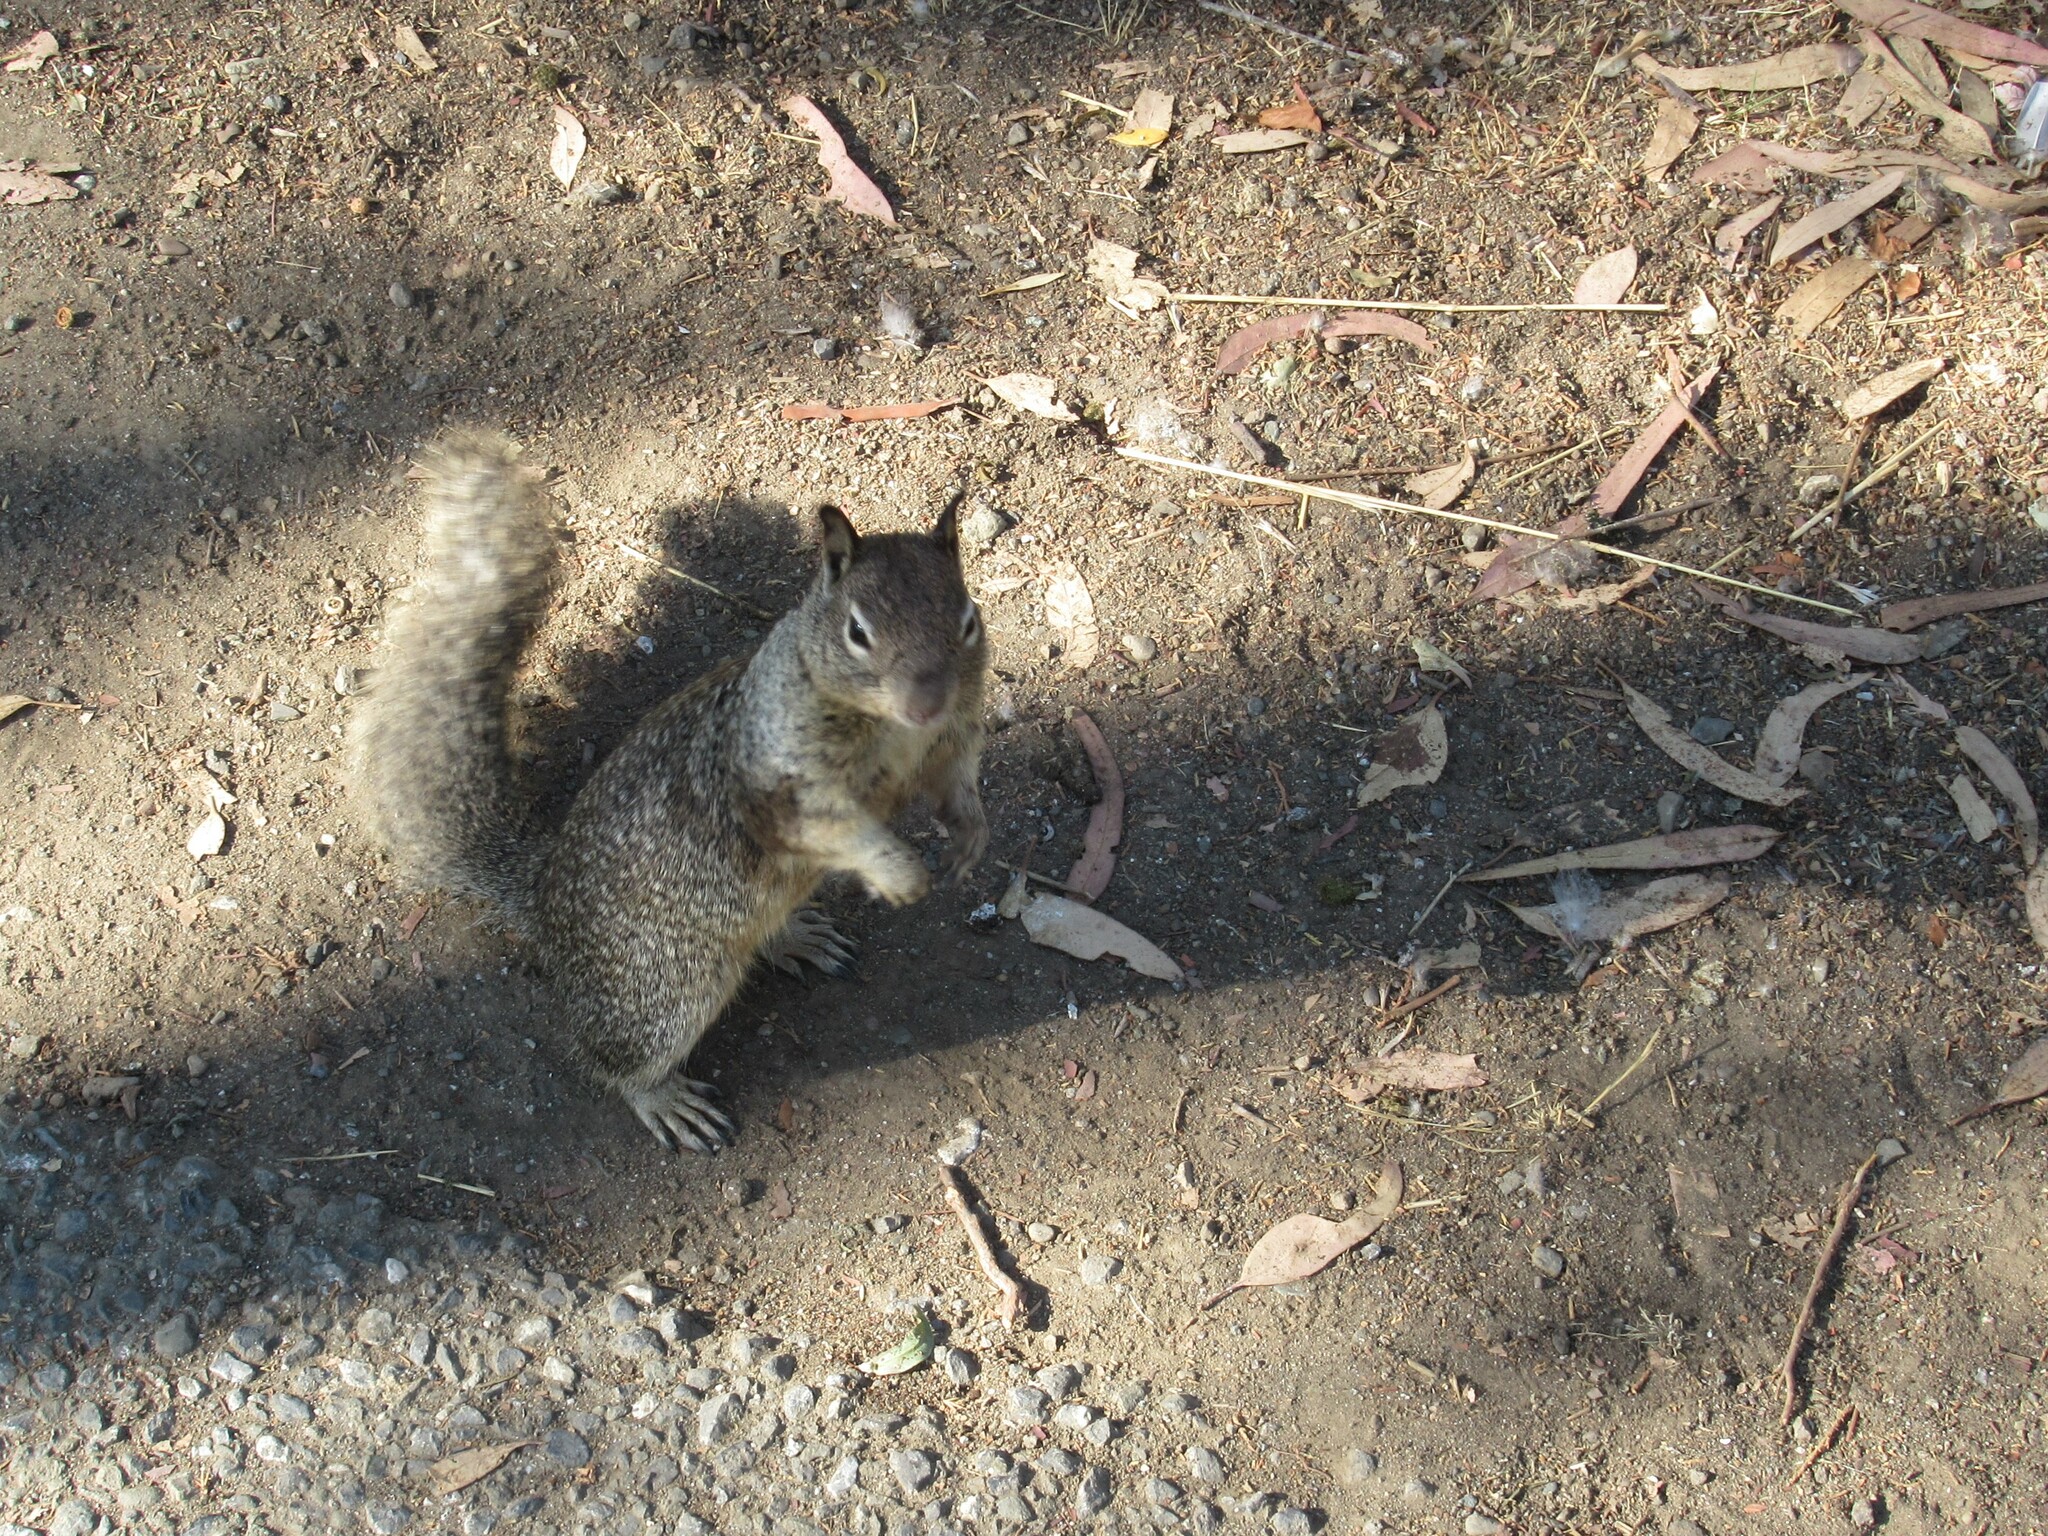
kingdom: Animalia
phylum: Chordata
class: Mammalia
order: Rodentia
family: Sciuridae
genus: Otospermophilus
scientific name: Otospermophilus beecheyi
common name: California ground squirrel
